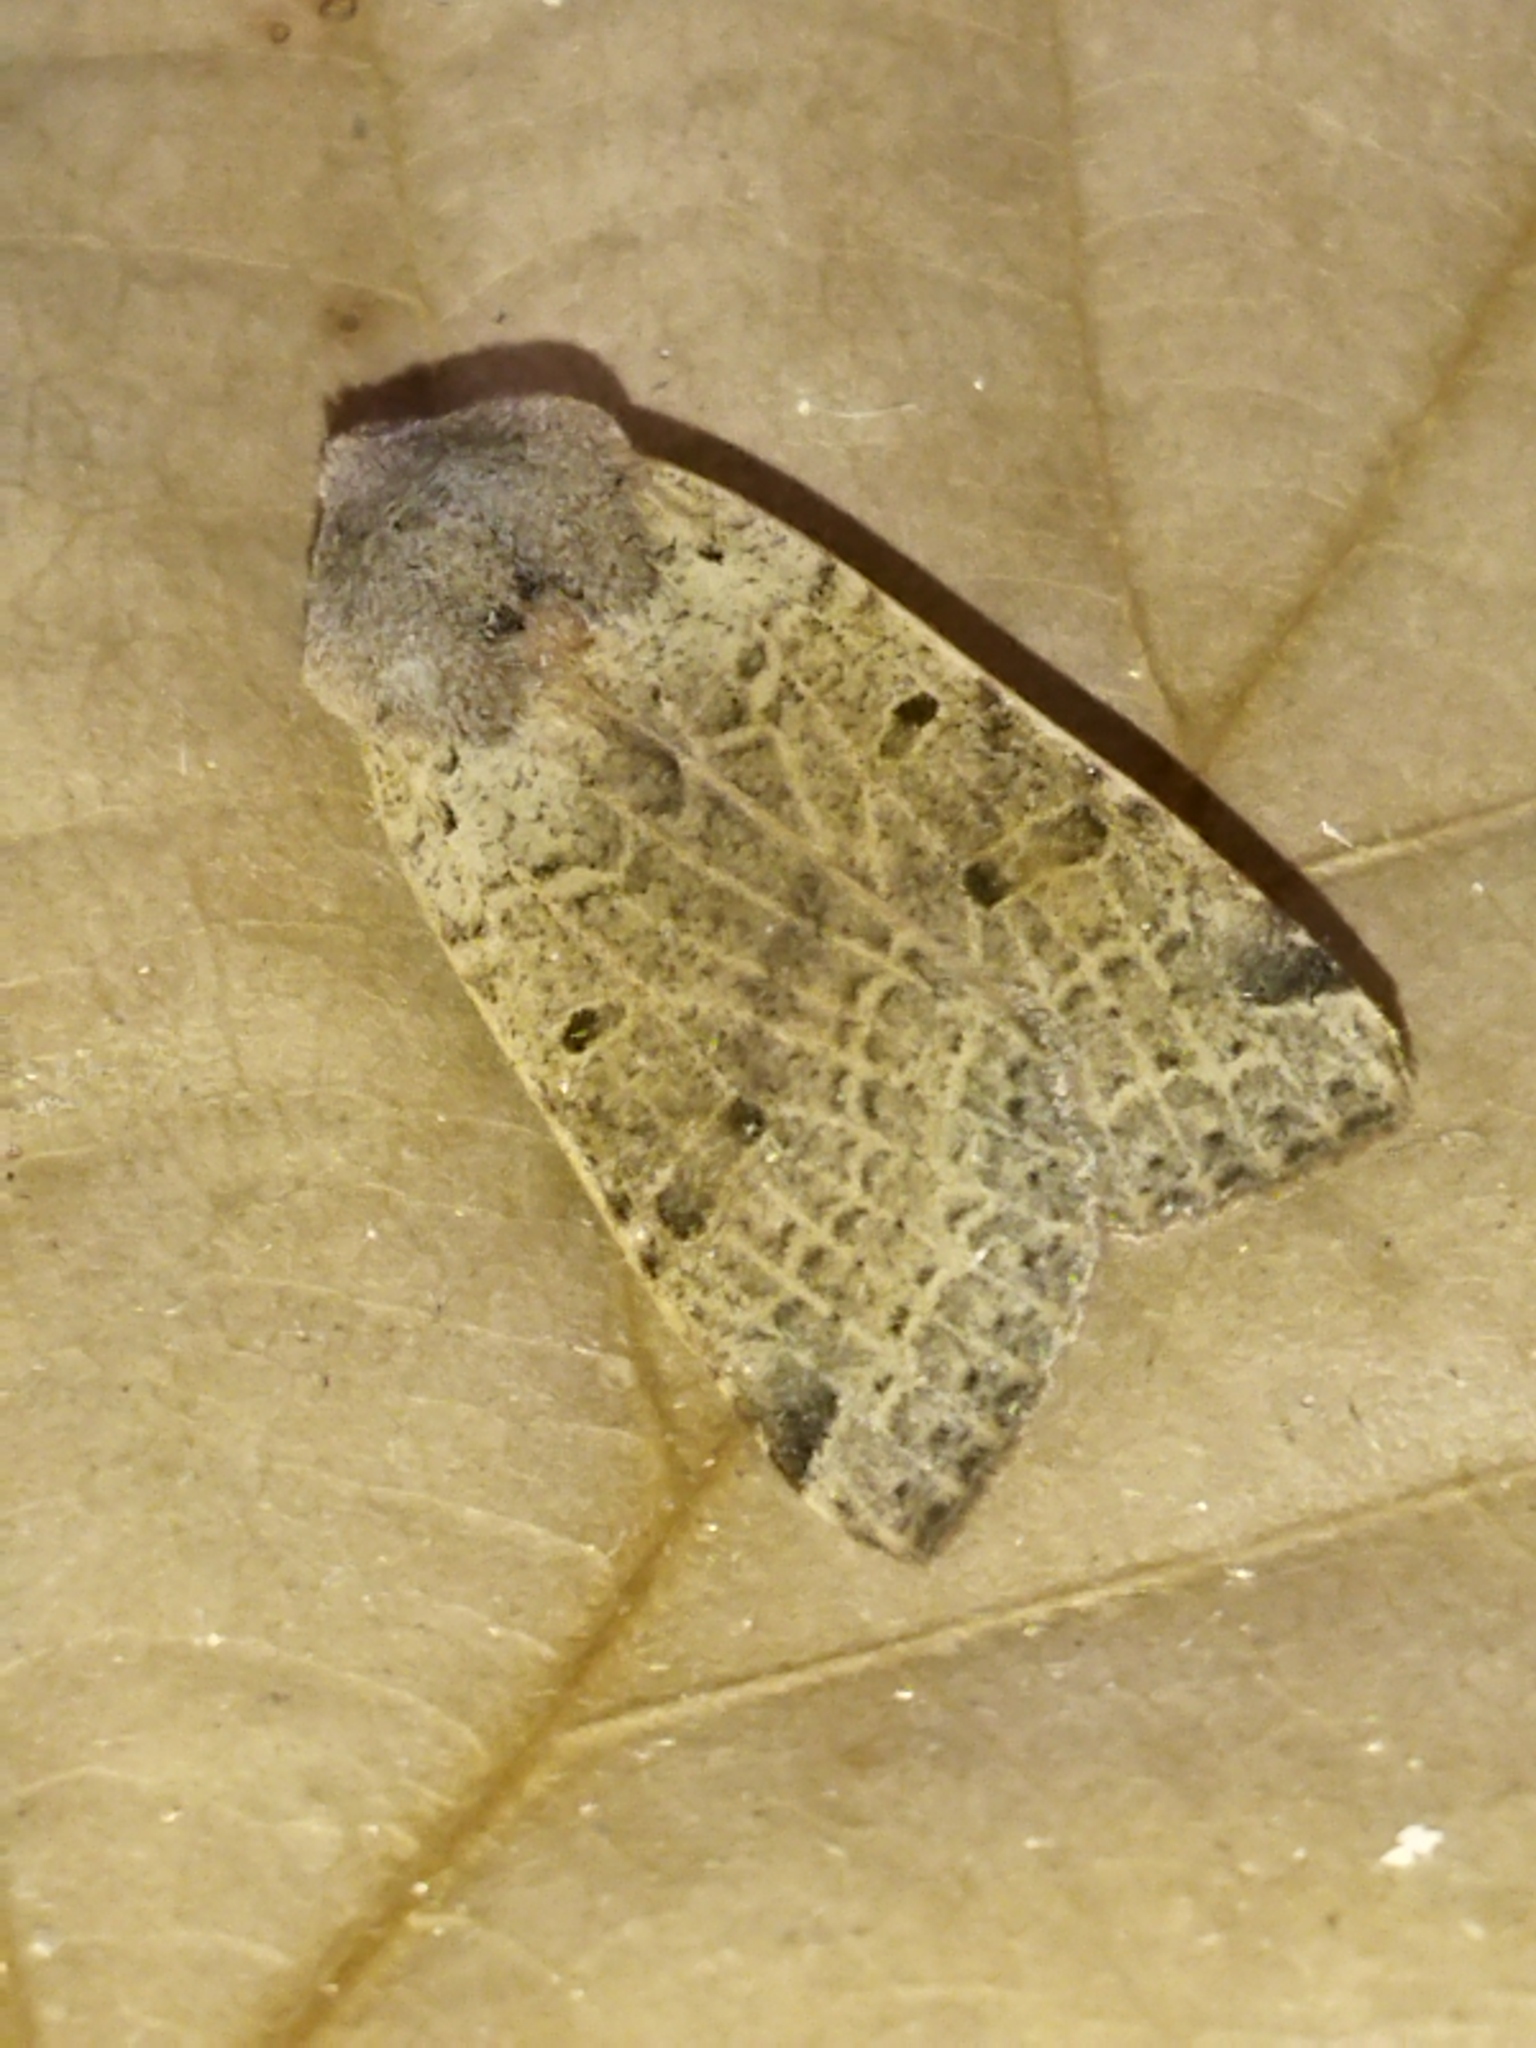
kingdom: Animalia
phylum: Arthropoda
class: Insecta
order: Lepidoptera
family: Noctuidae
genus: Agrochola
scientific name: Agrochola lychnidis
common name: Beaded chestnut
